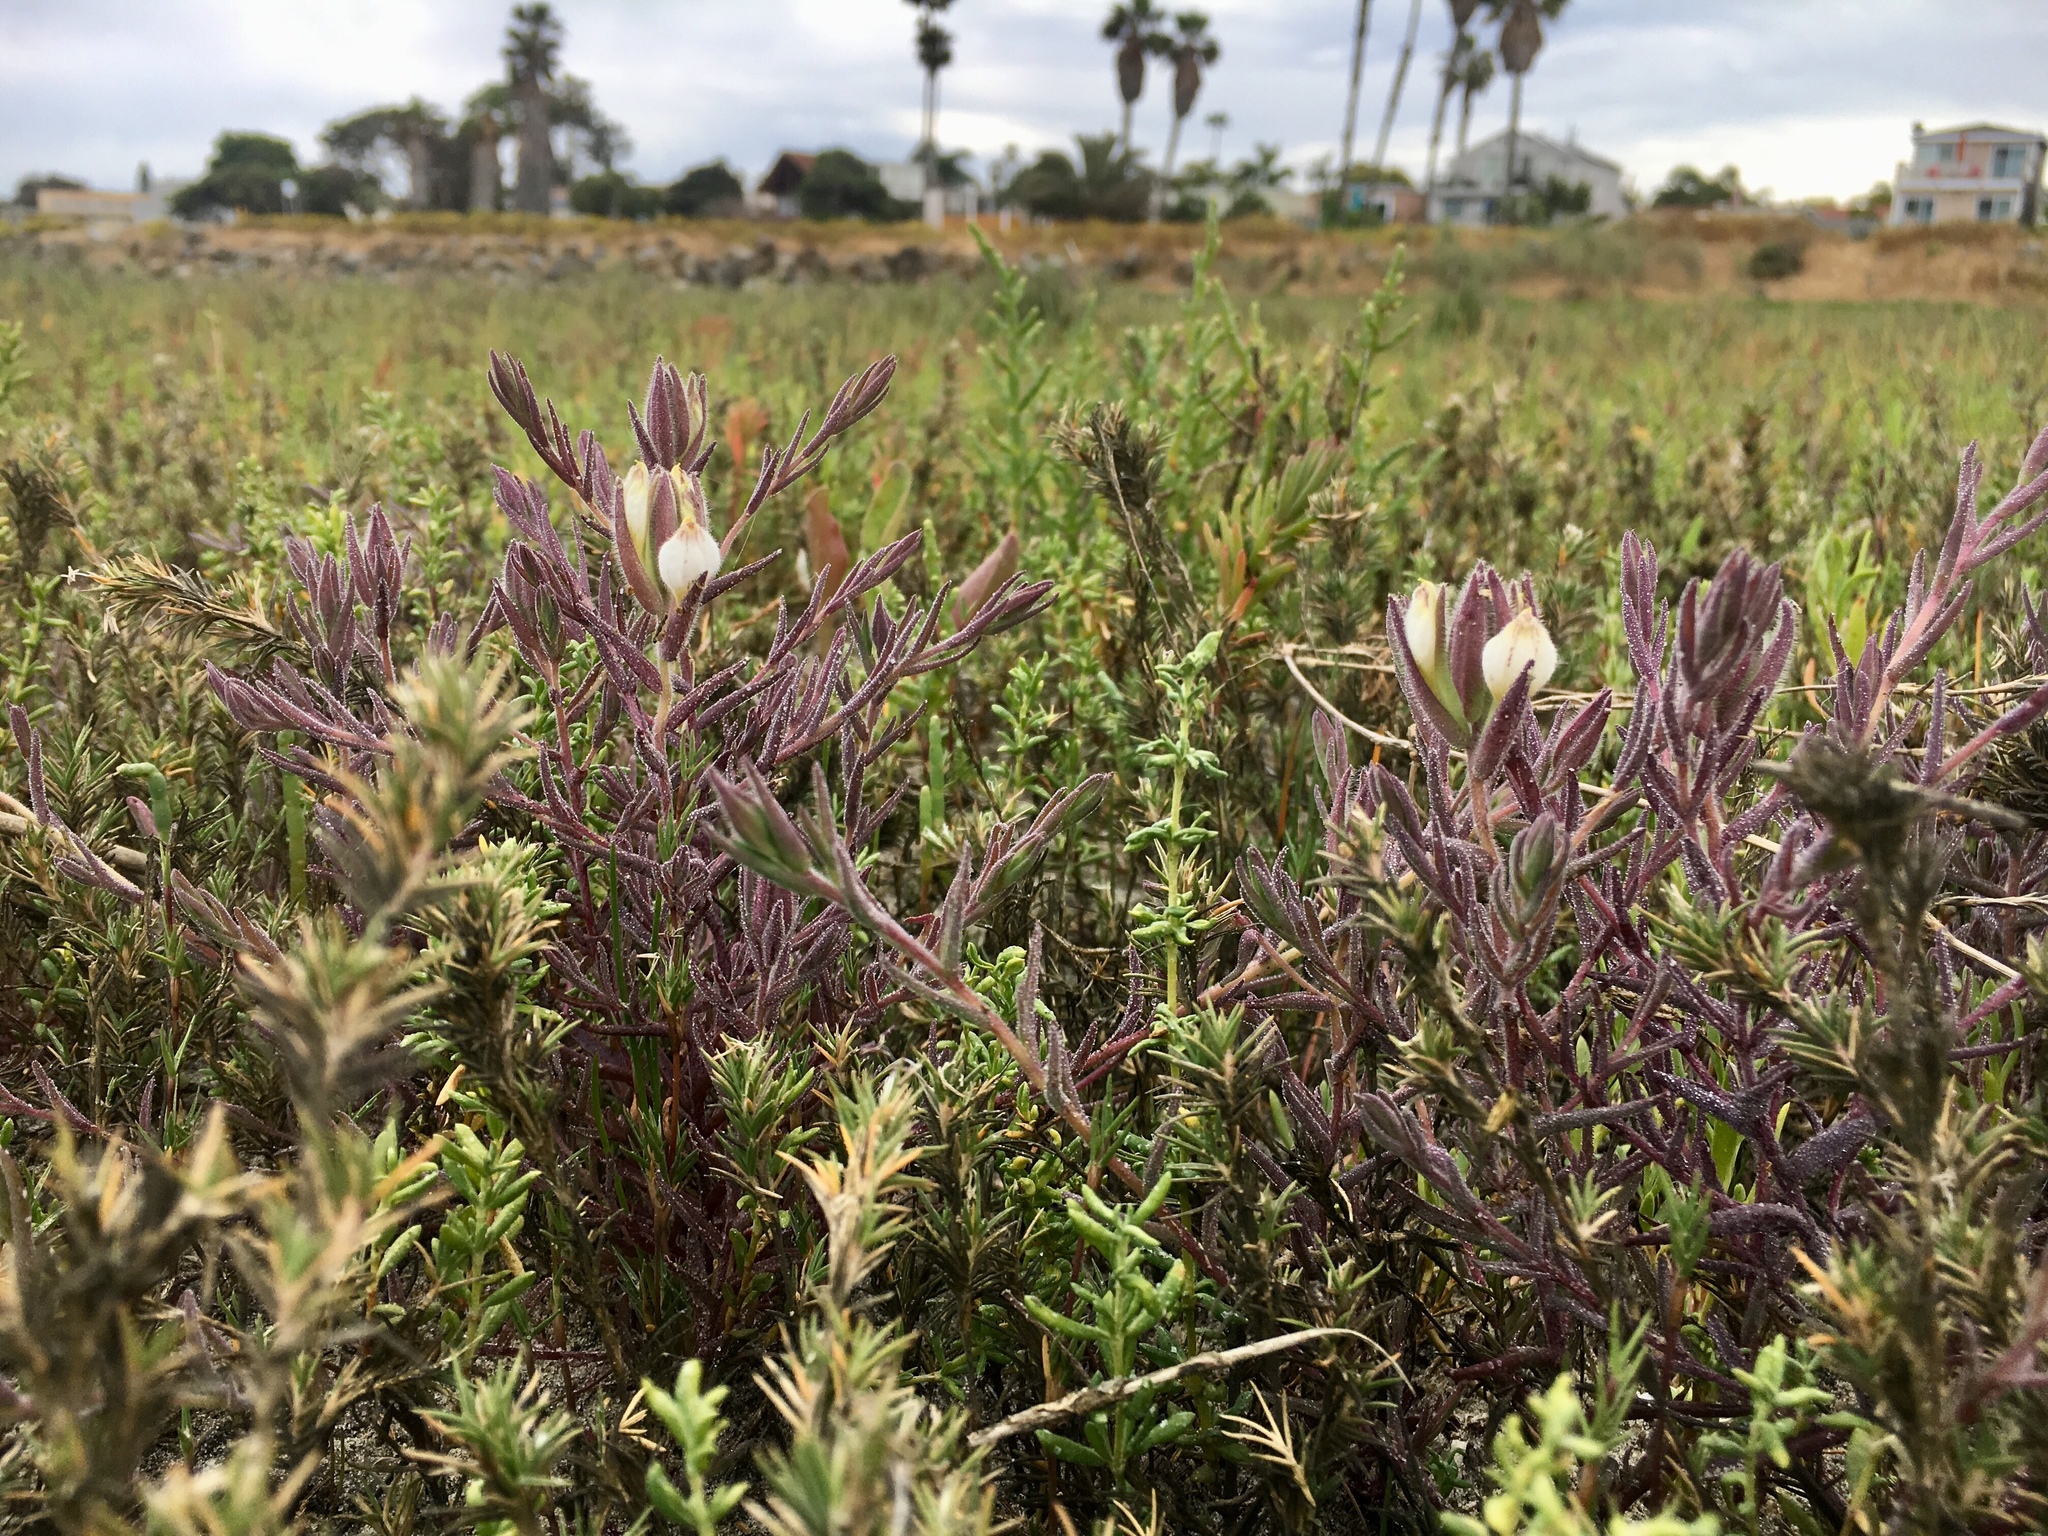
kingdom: Plantae
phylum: Tracheophyta
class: Magnoliopsida
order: Lamiales
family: Orobanchaceae
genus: Chloropyron
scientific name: Chloropyron maritimum
